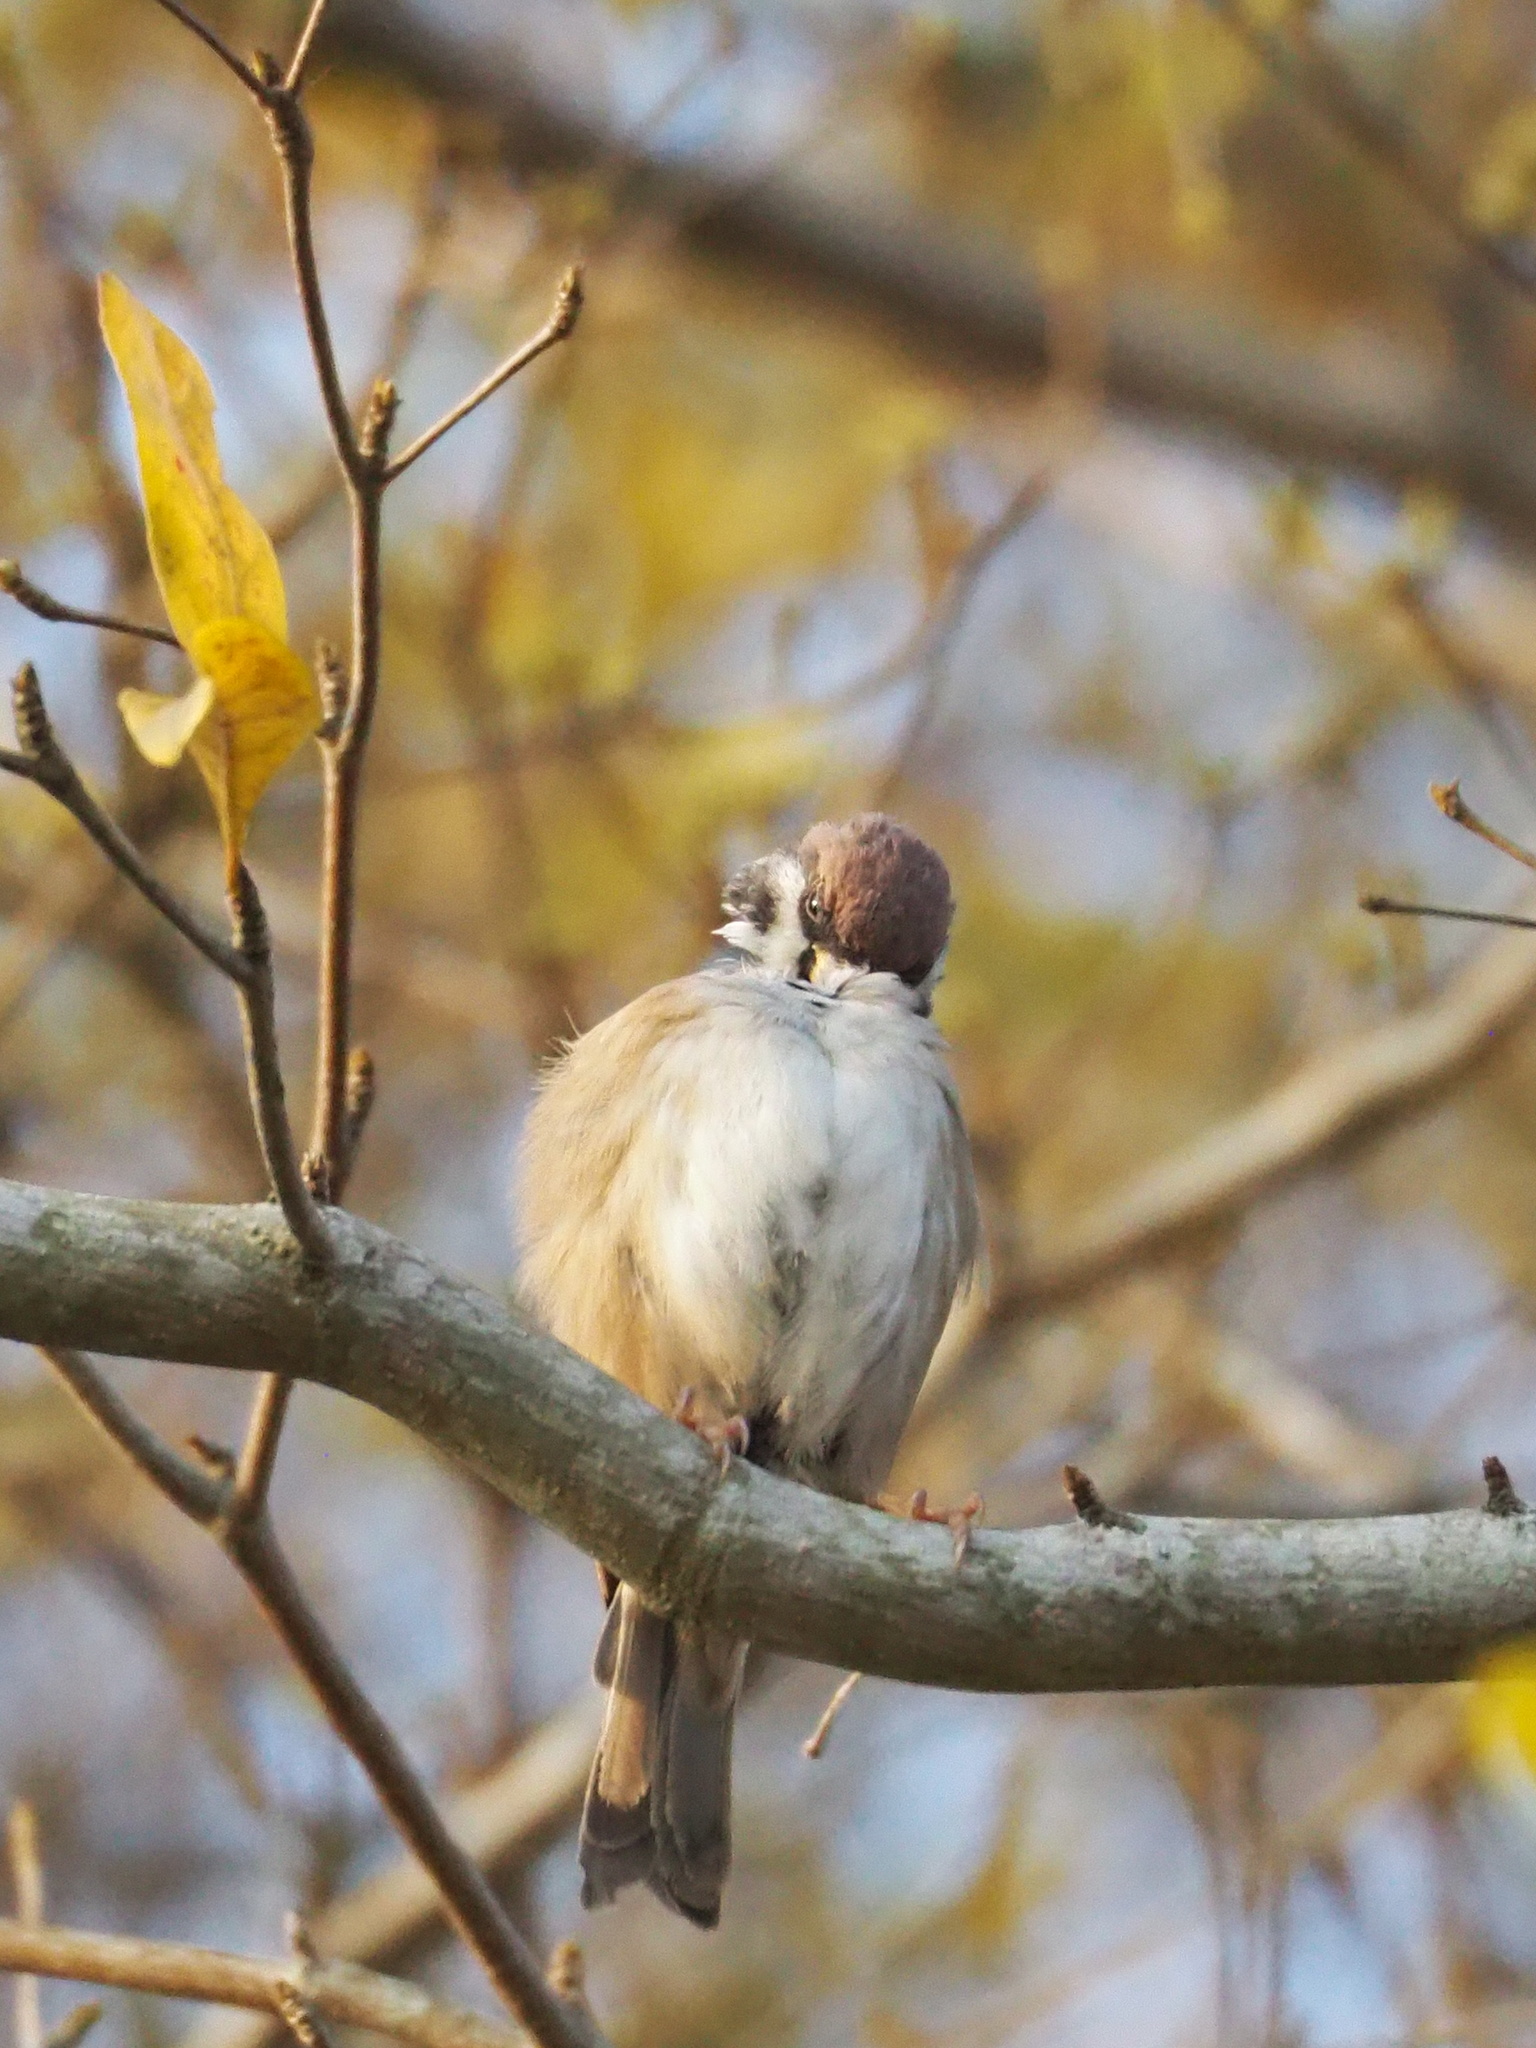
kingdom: Animalia
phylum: Chordata
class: Aves
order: Passeriformes
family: Passeridae
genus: Passer
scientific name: Passer montanus
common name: Eurasian tree sparrow
